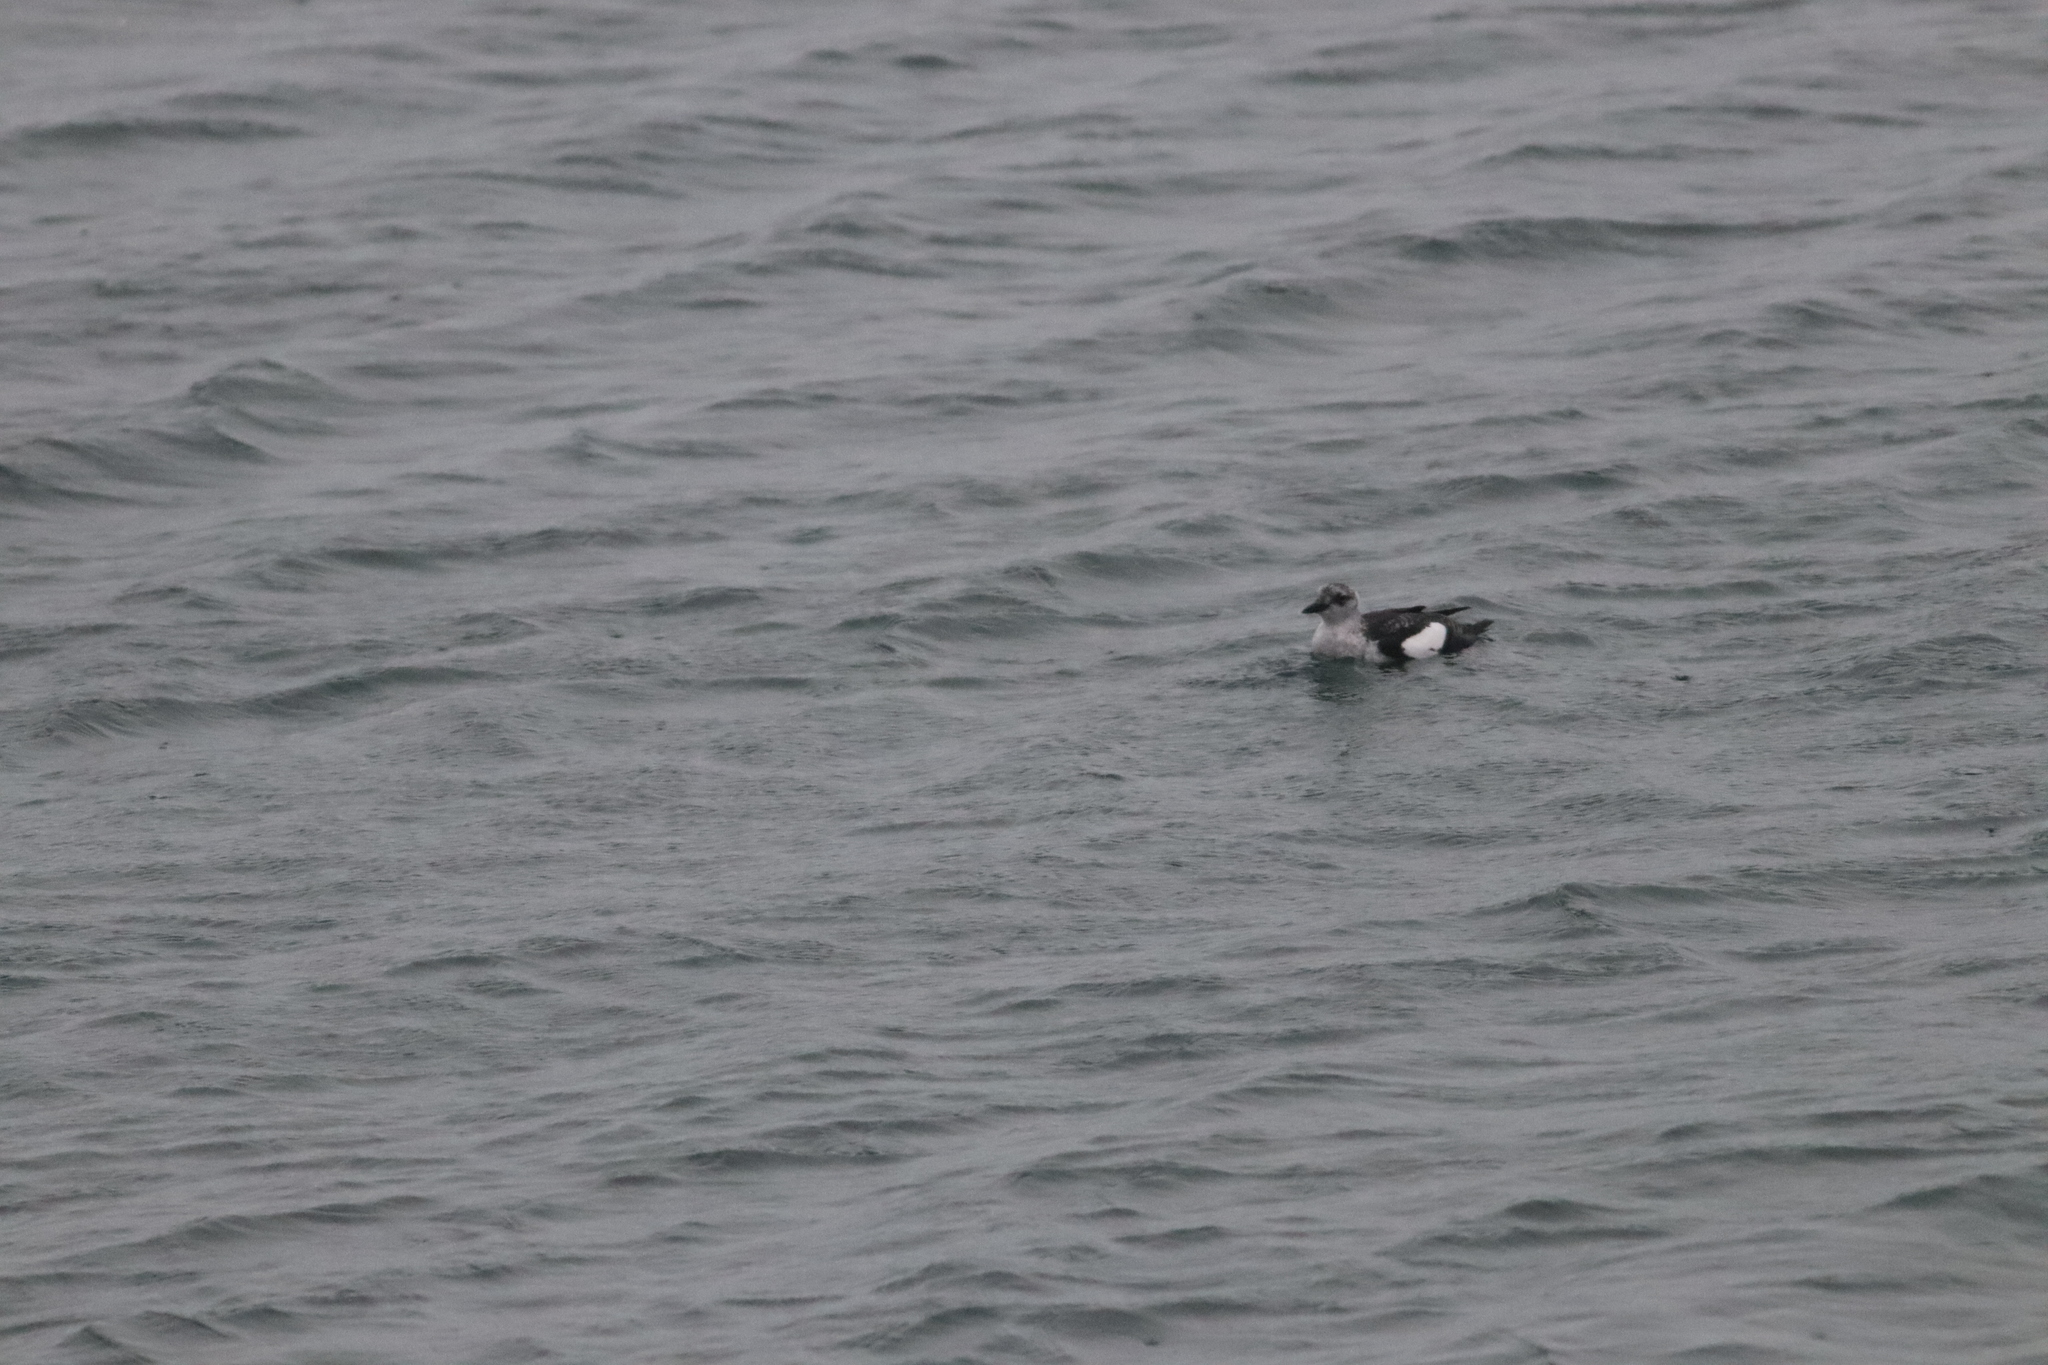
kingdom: Animalia
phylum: Chordata
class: Aves
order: Charadriiformes
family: Alcidae
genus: Cepphus
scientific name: Cepphus grylle
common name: Black guillemot
